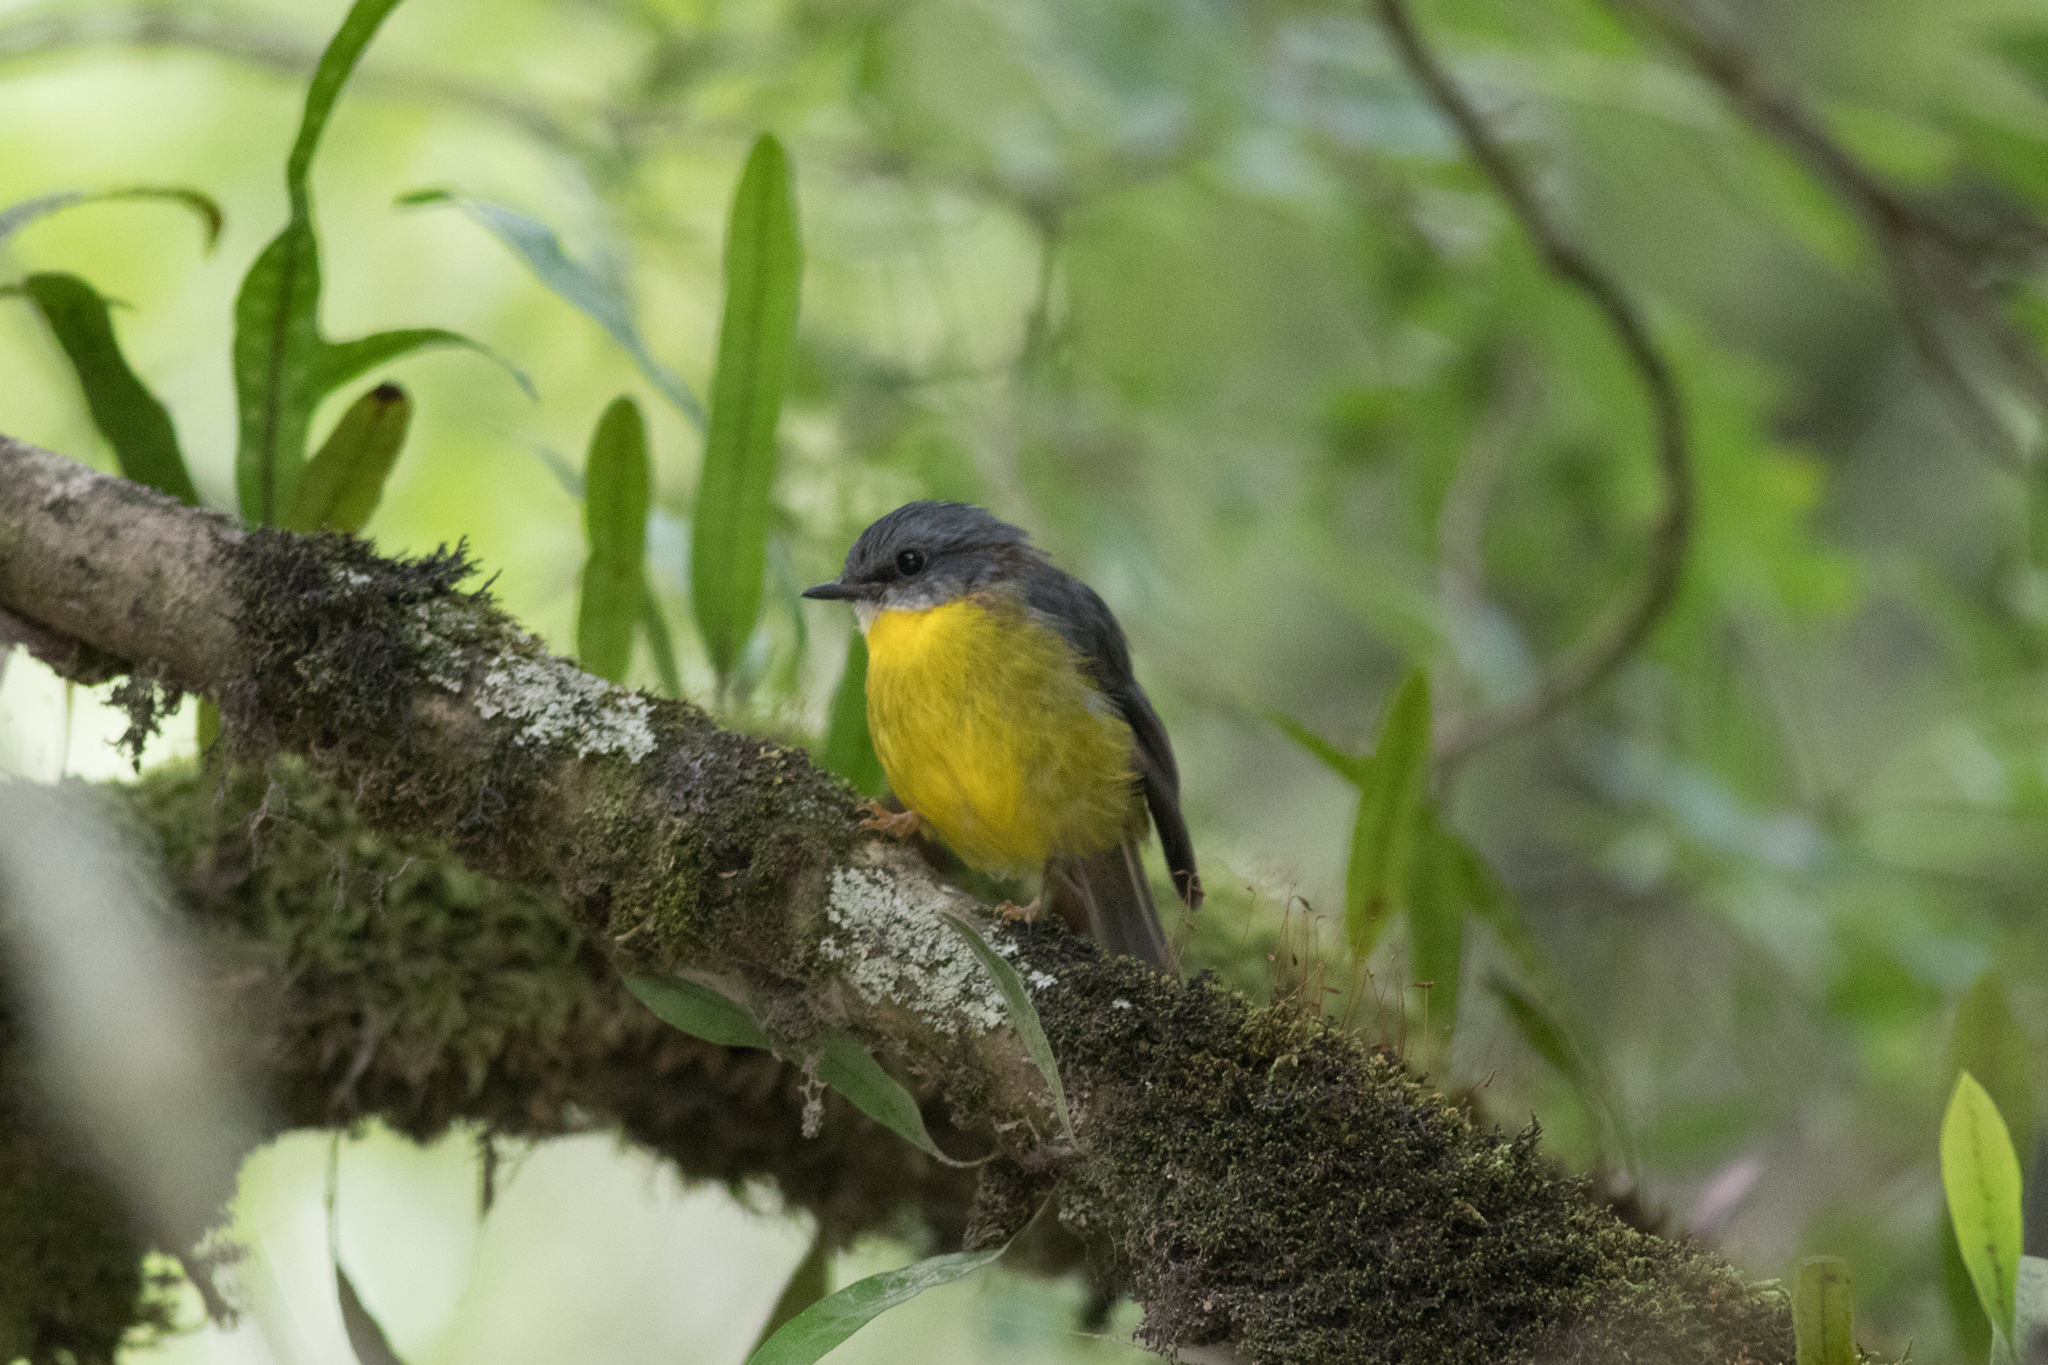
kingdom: Animalia
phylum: Chordata
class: Aves
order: Passeriformes
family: Petroicidae
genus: Eopsaltria
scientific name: Eopsaltria australis
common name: Eastern yellow robin
